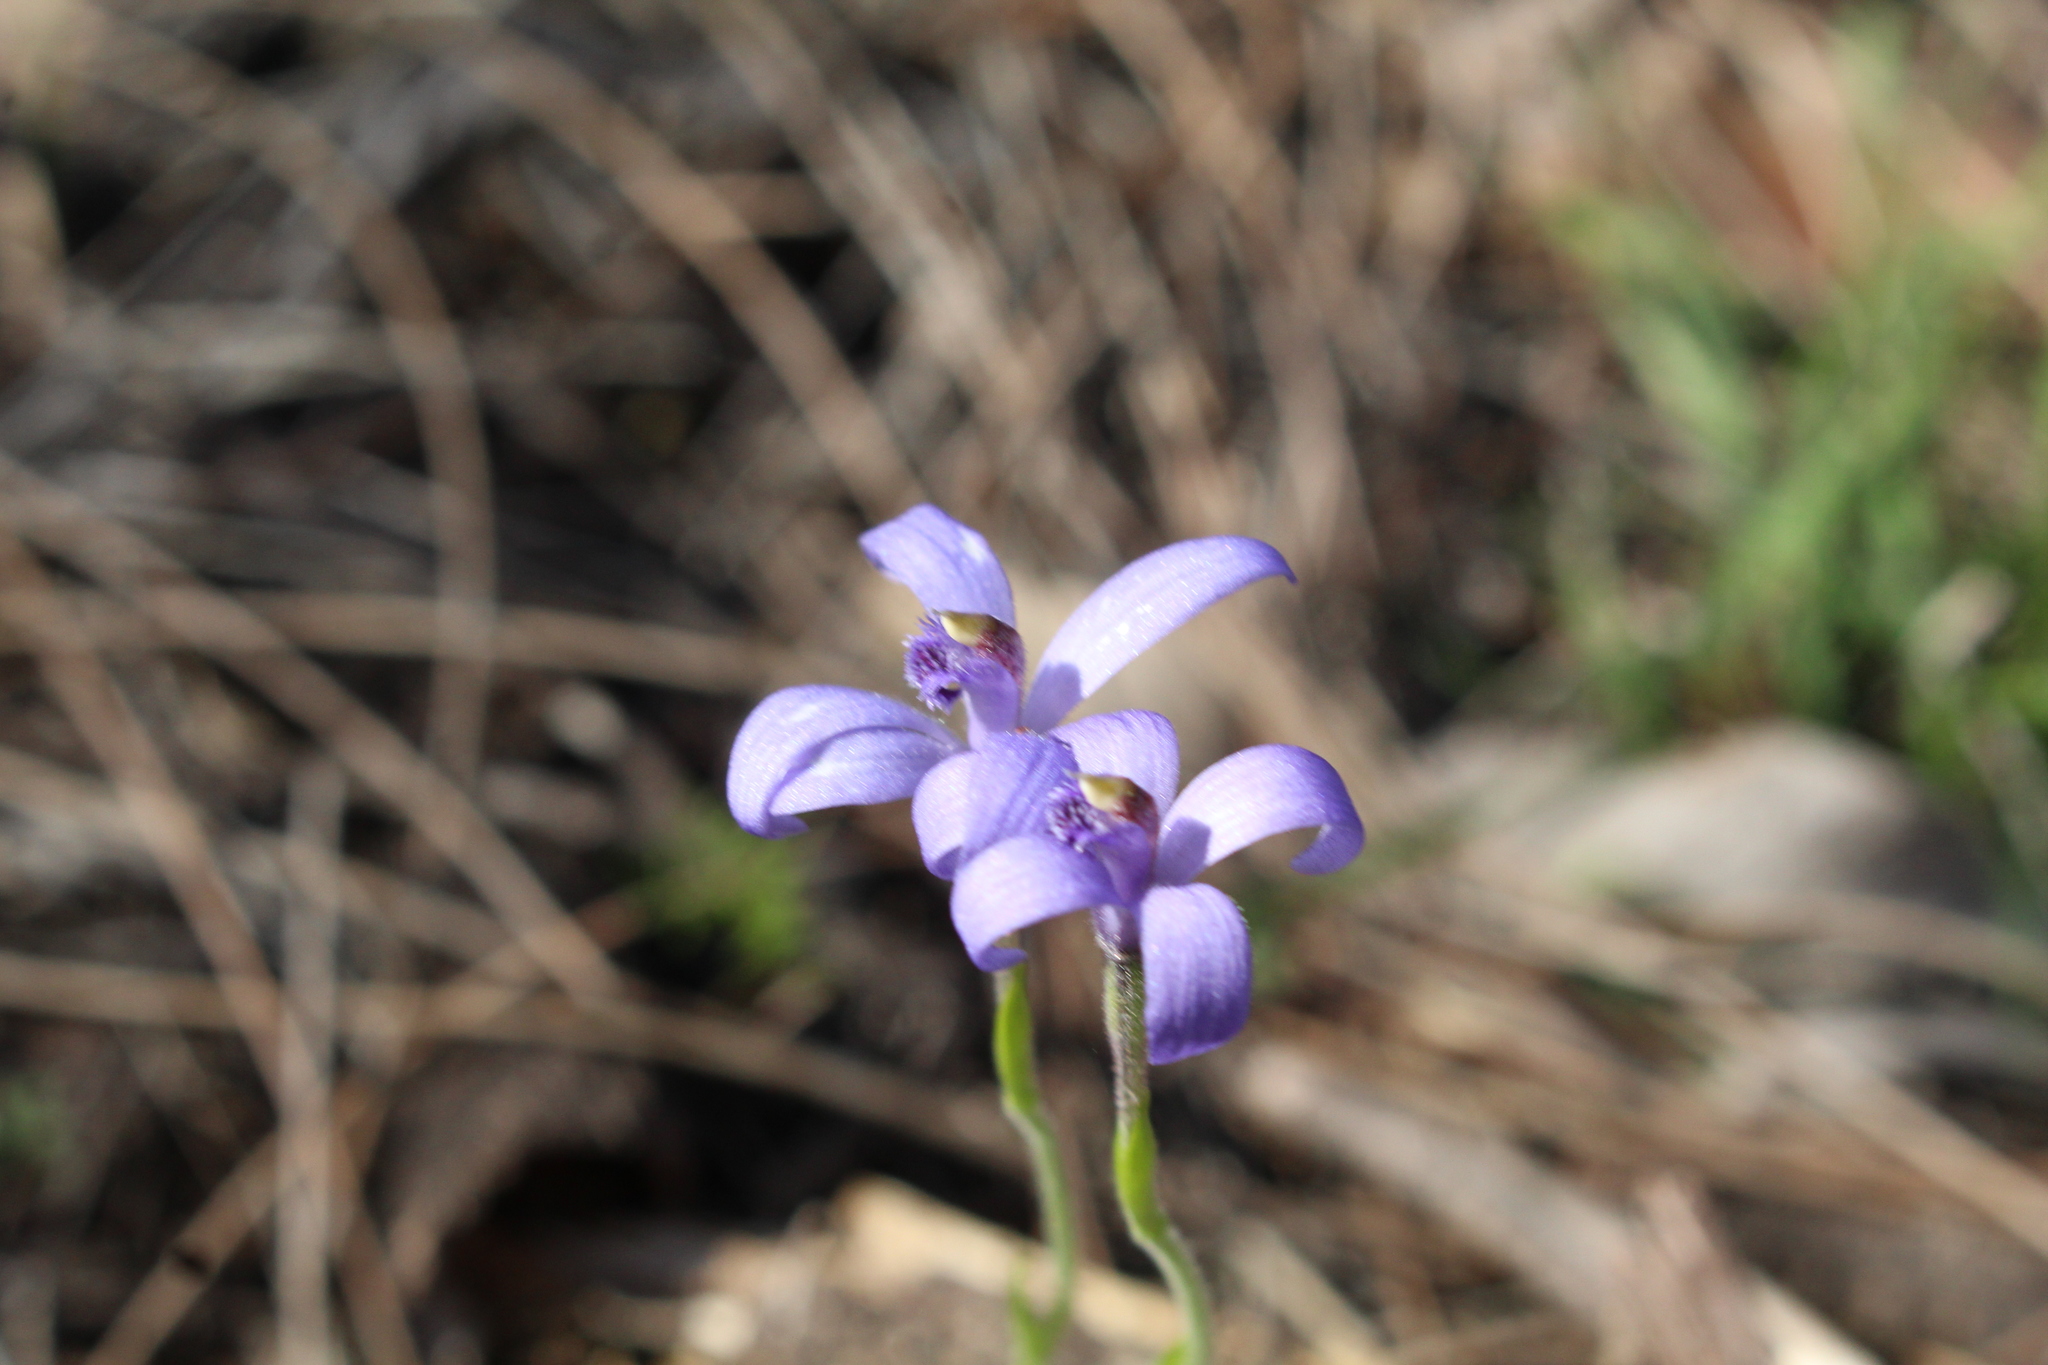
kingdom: Plantae
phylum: Tracheophyta
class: Liliopsida
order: Asparagales
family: Orchidaceae
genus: Pheladenia
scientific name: Pheladenia deformis
